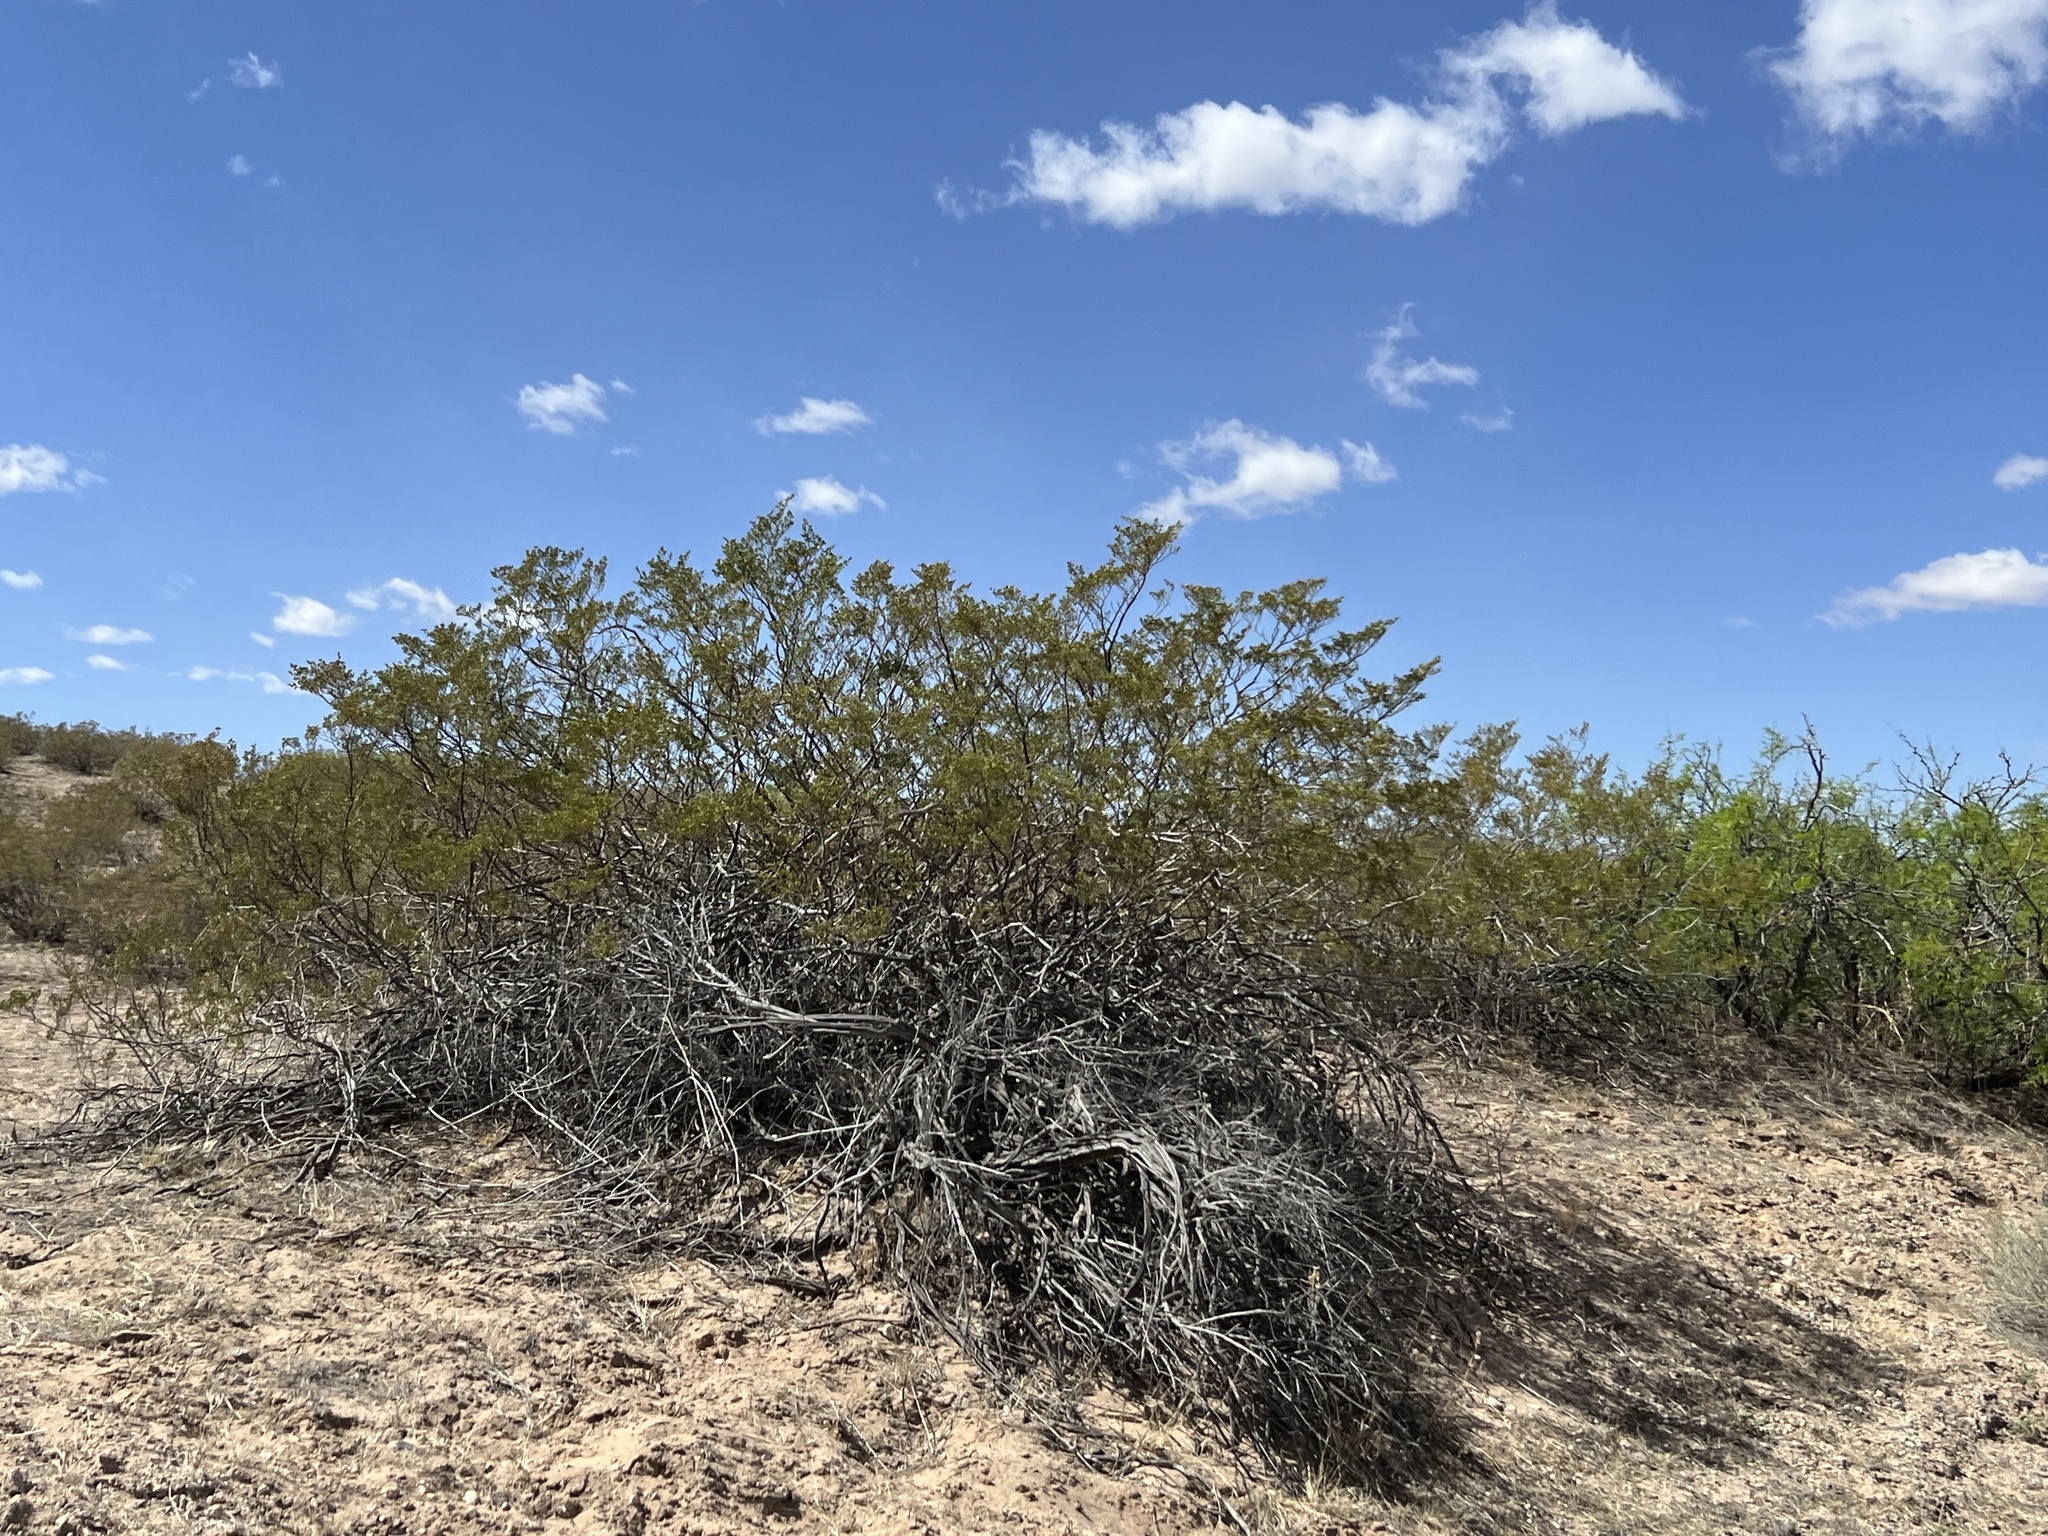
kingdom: Plantae
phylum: Tracheophyta
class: Magnoliopsida
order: Zygophyllales
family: Zygophyllaceae
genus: Larrea
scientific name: Larrea tridentata
